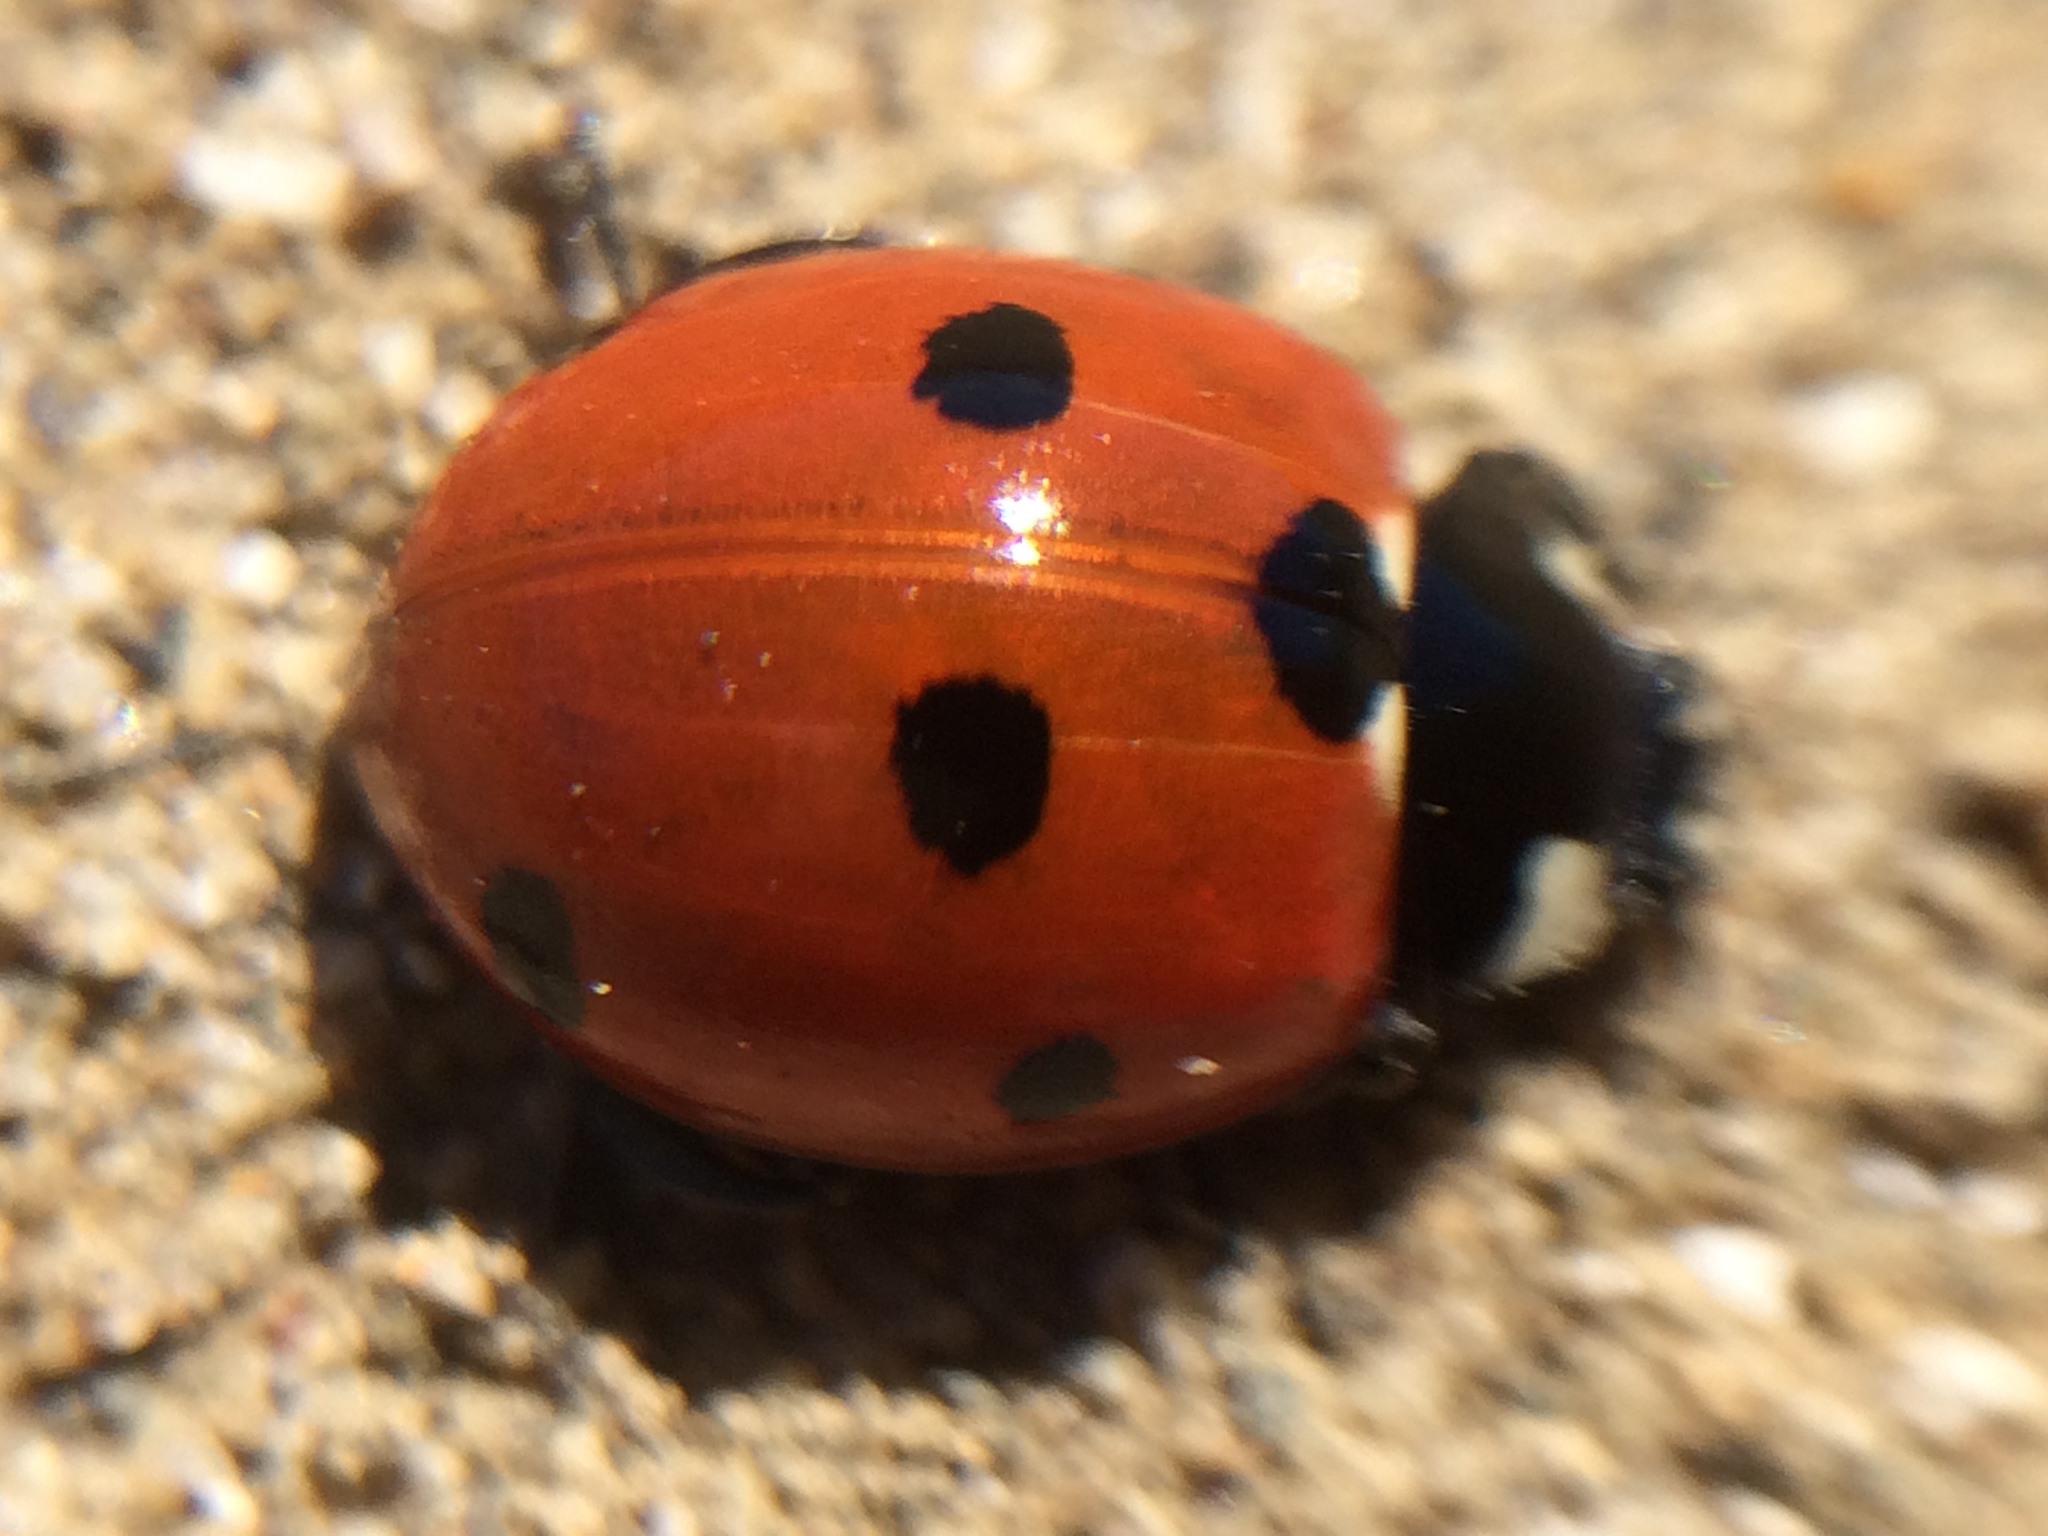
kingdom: Animalia
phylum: Arthropoda
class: Insecta
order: Coleoptera
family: Coccinellidae
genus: Coccinella
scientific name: Coccinella septempunctata
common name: Sevenspotted lady beetle
